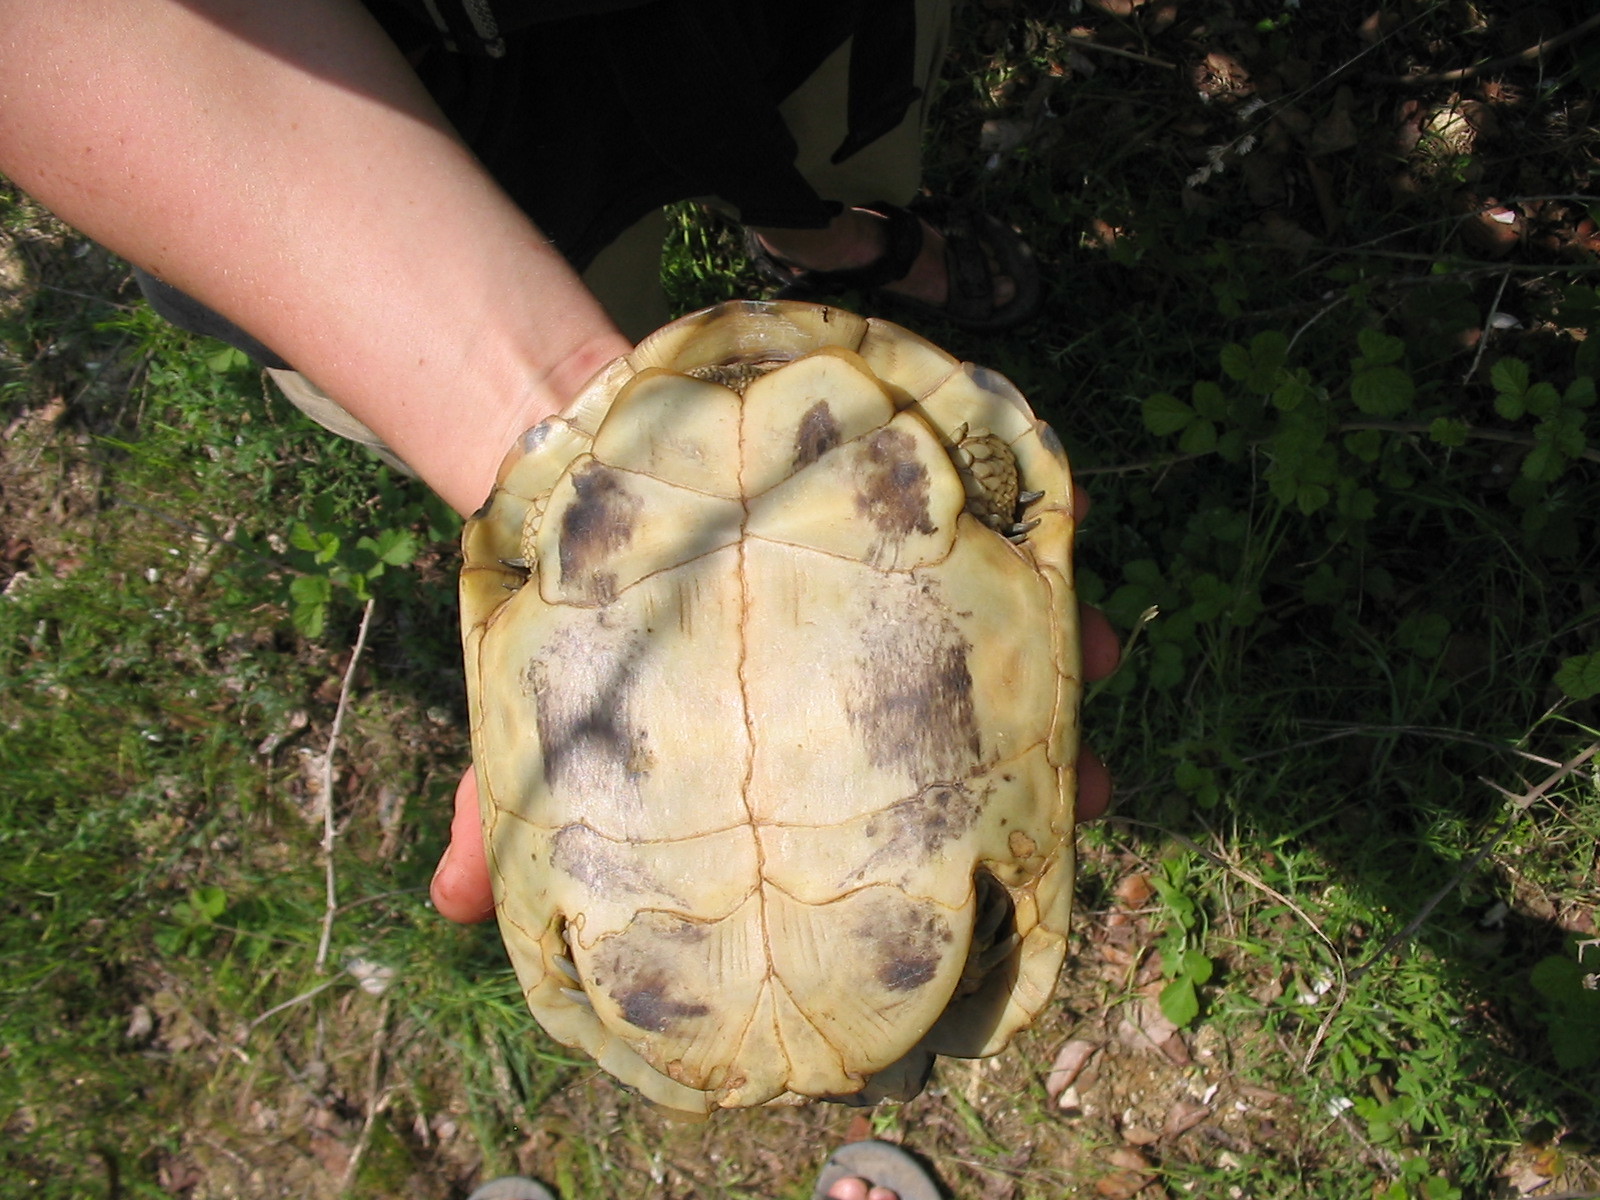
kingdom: Animalia
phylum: Chordata
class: Testudines
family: Testudinidae
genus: Testudo
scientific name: Testudo hermanni
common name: Hermann's tortoise
